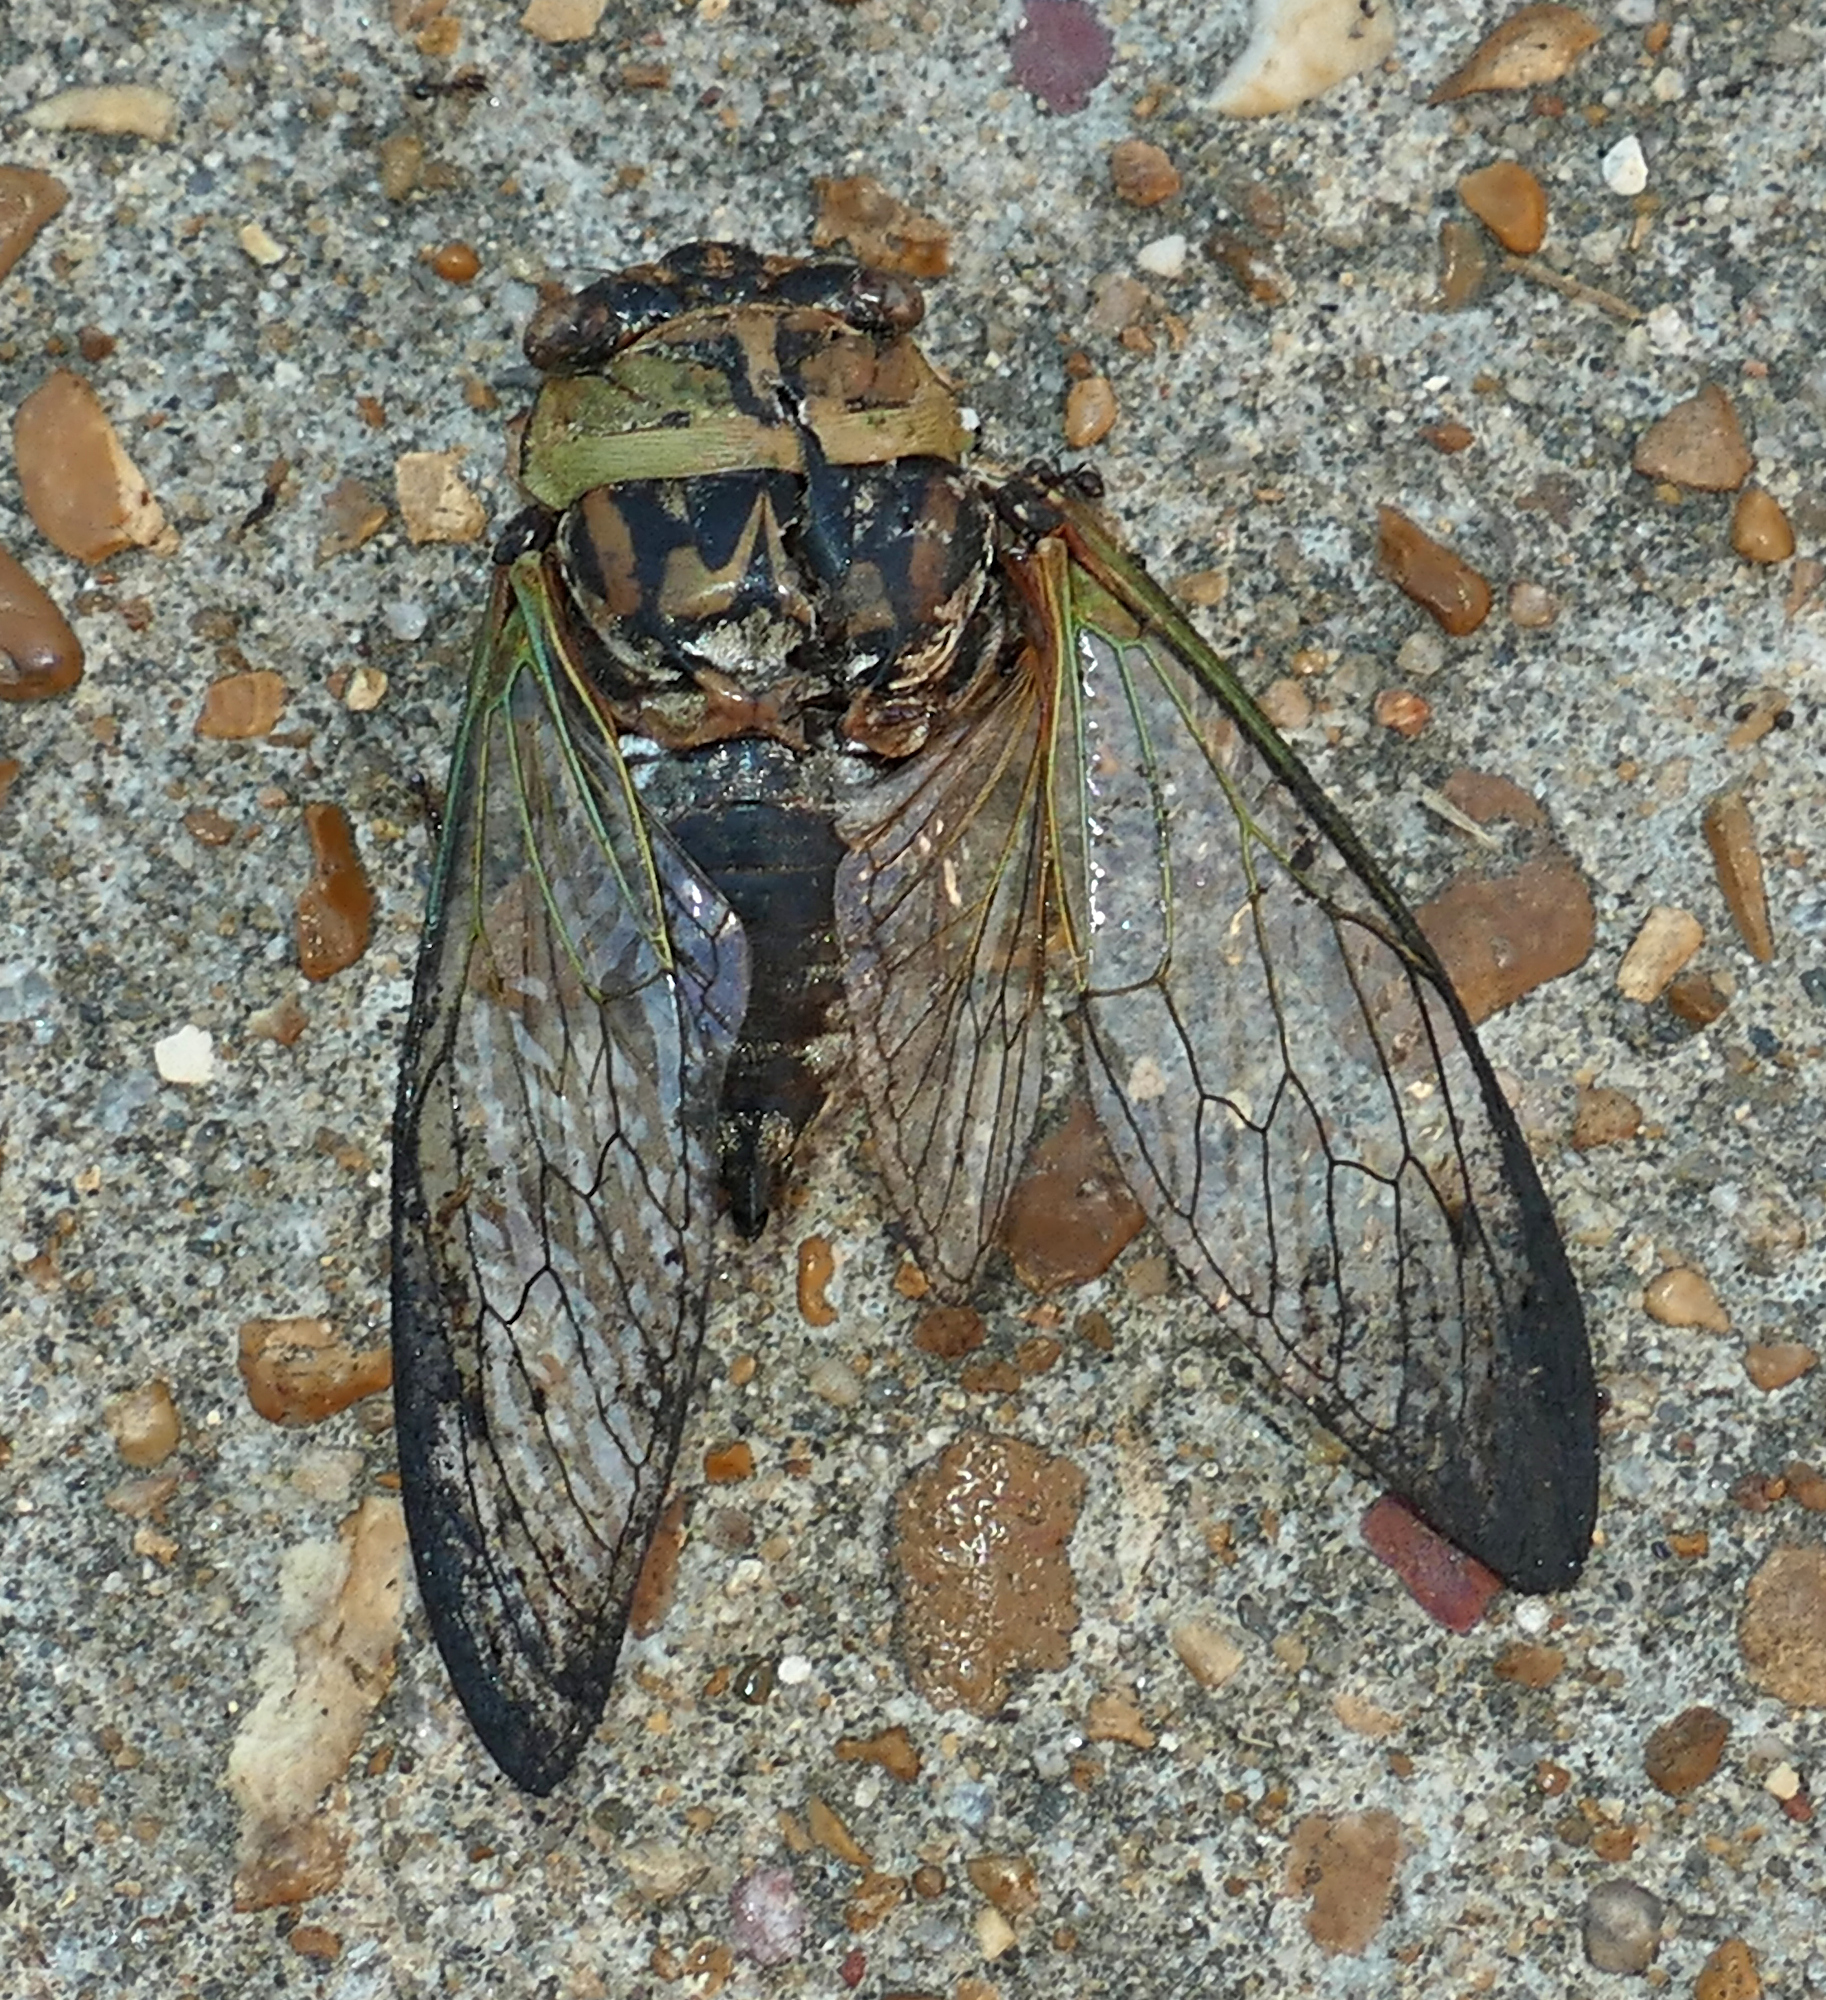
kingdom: Animalia
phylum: Arthropoda
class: Insecta
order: Hemiptera
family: Cicadidae
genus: Megatibicen
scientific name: Megatibicen resh
